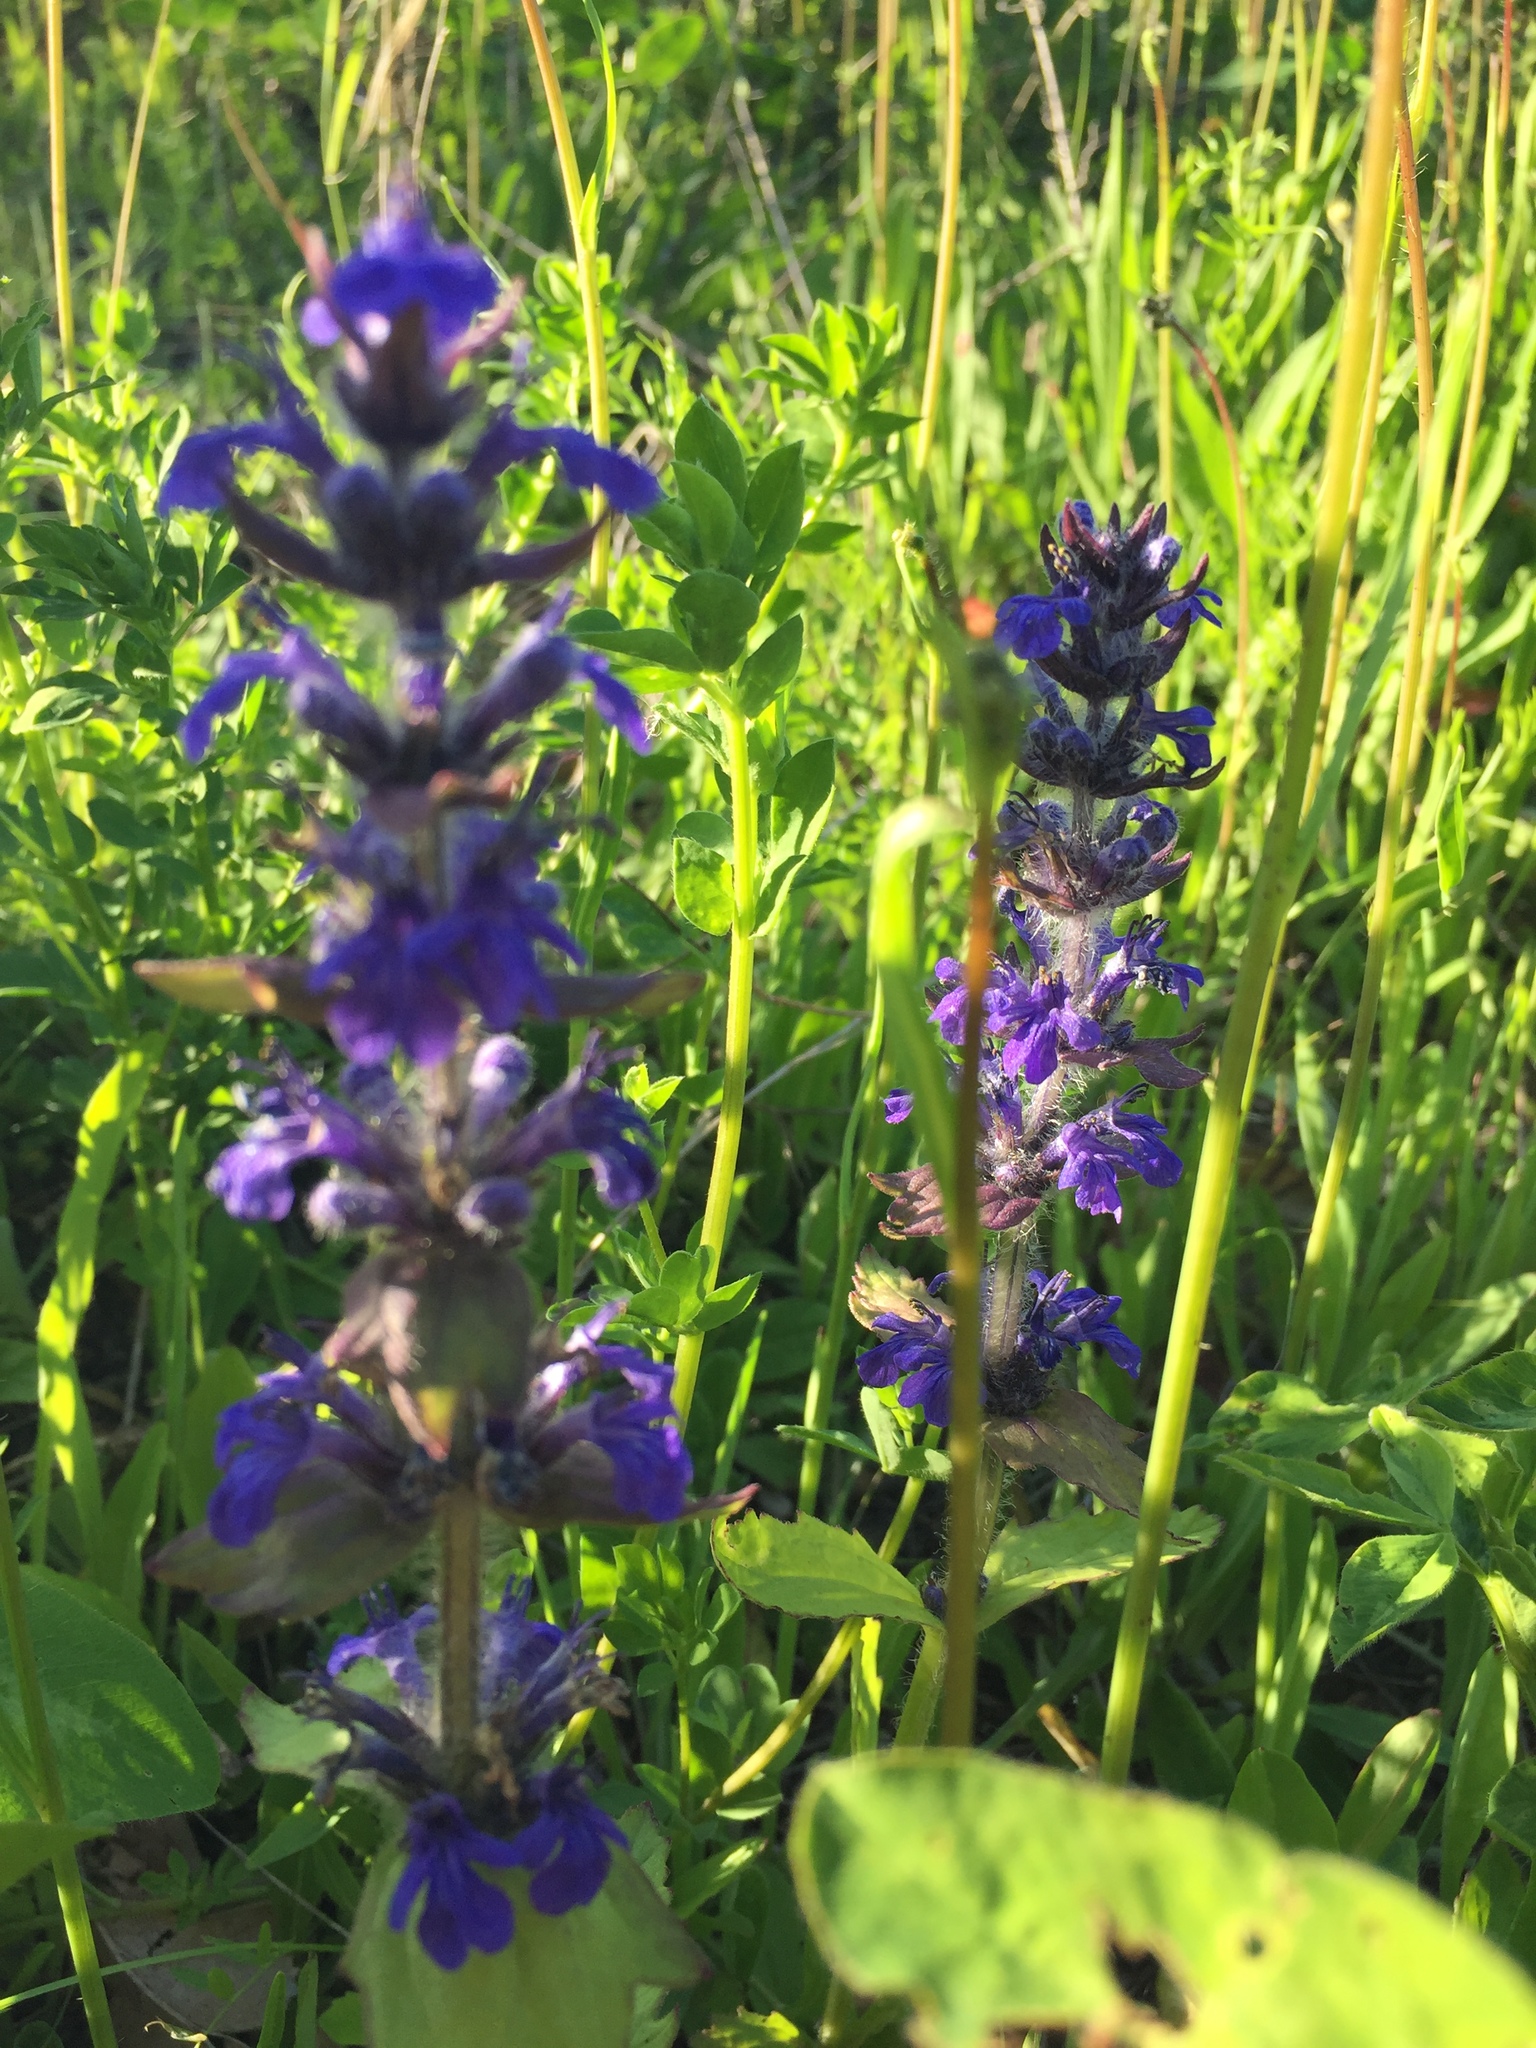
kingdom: Plantae
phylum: Tracheophyta
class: Magnoliopsida
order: Lamiales
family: Lamiaceae
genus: Ajuga
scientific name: Ajuga genevensis
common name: Blue bugle
